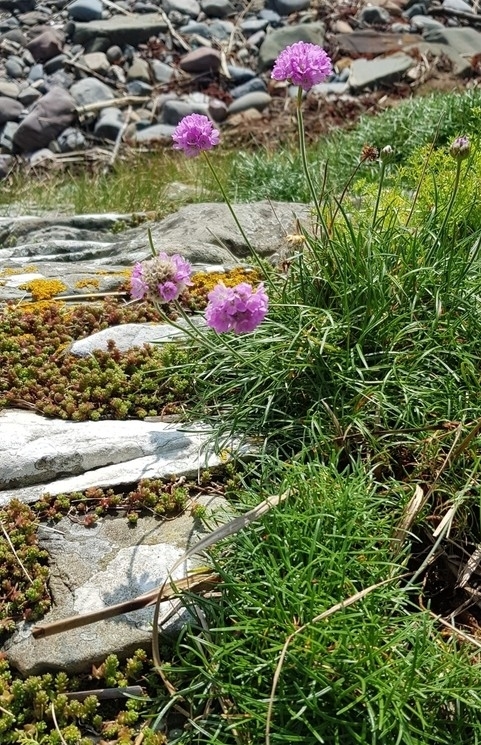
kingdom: Plantae
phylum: Tracheophyta
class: Magnoliopsida
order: Caryophyllales
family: Plumbaginaceae
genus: Armeria
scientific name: Armeria maritima
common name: Thrift
